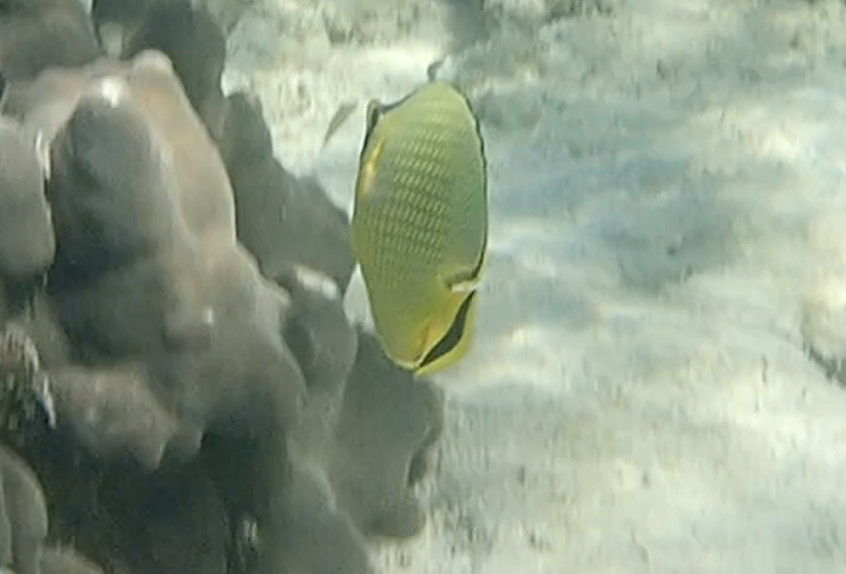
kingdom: Animalia
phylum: Chordata
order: Perciformes
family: Chaetodontidae
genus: Chaetodon
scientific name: Chaetodon rafflesii
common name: Latticed butterflyfish
